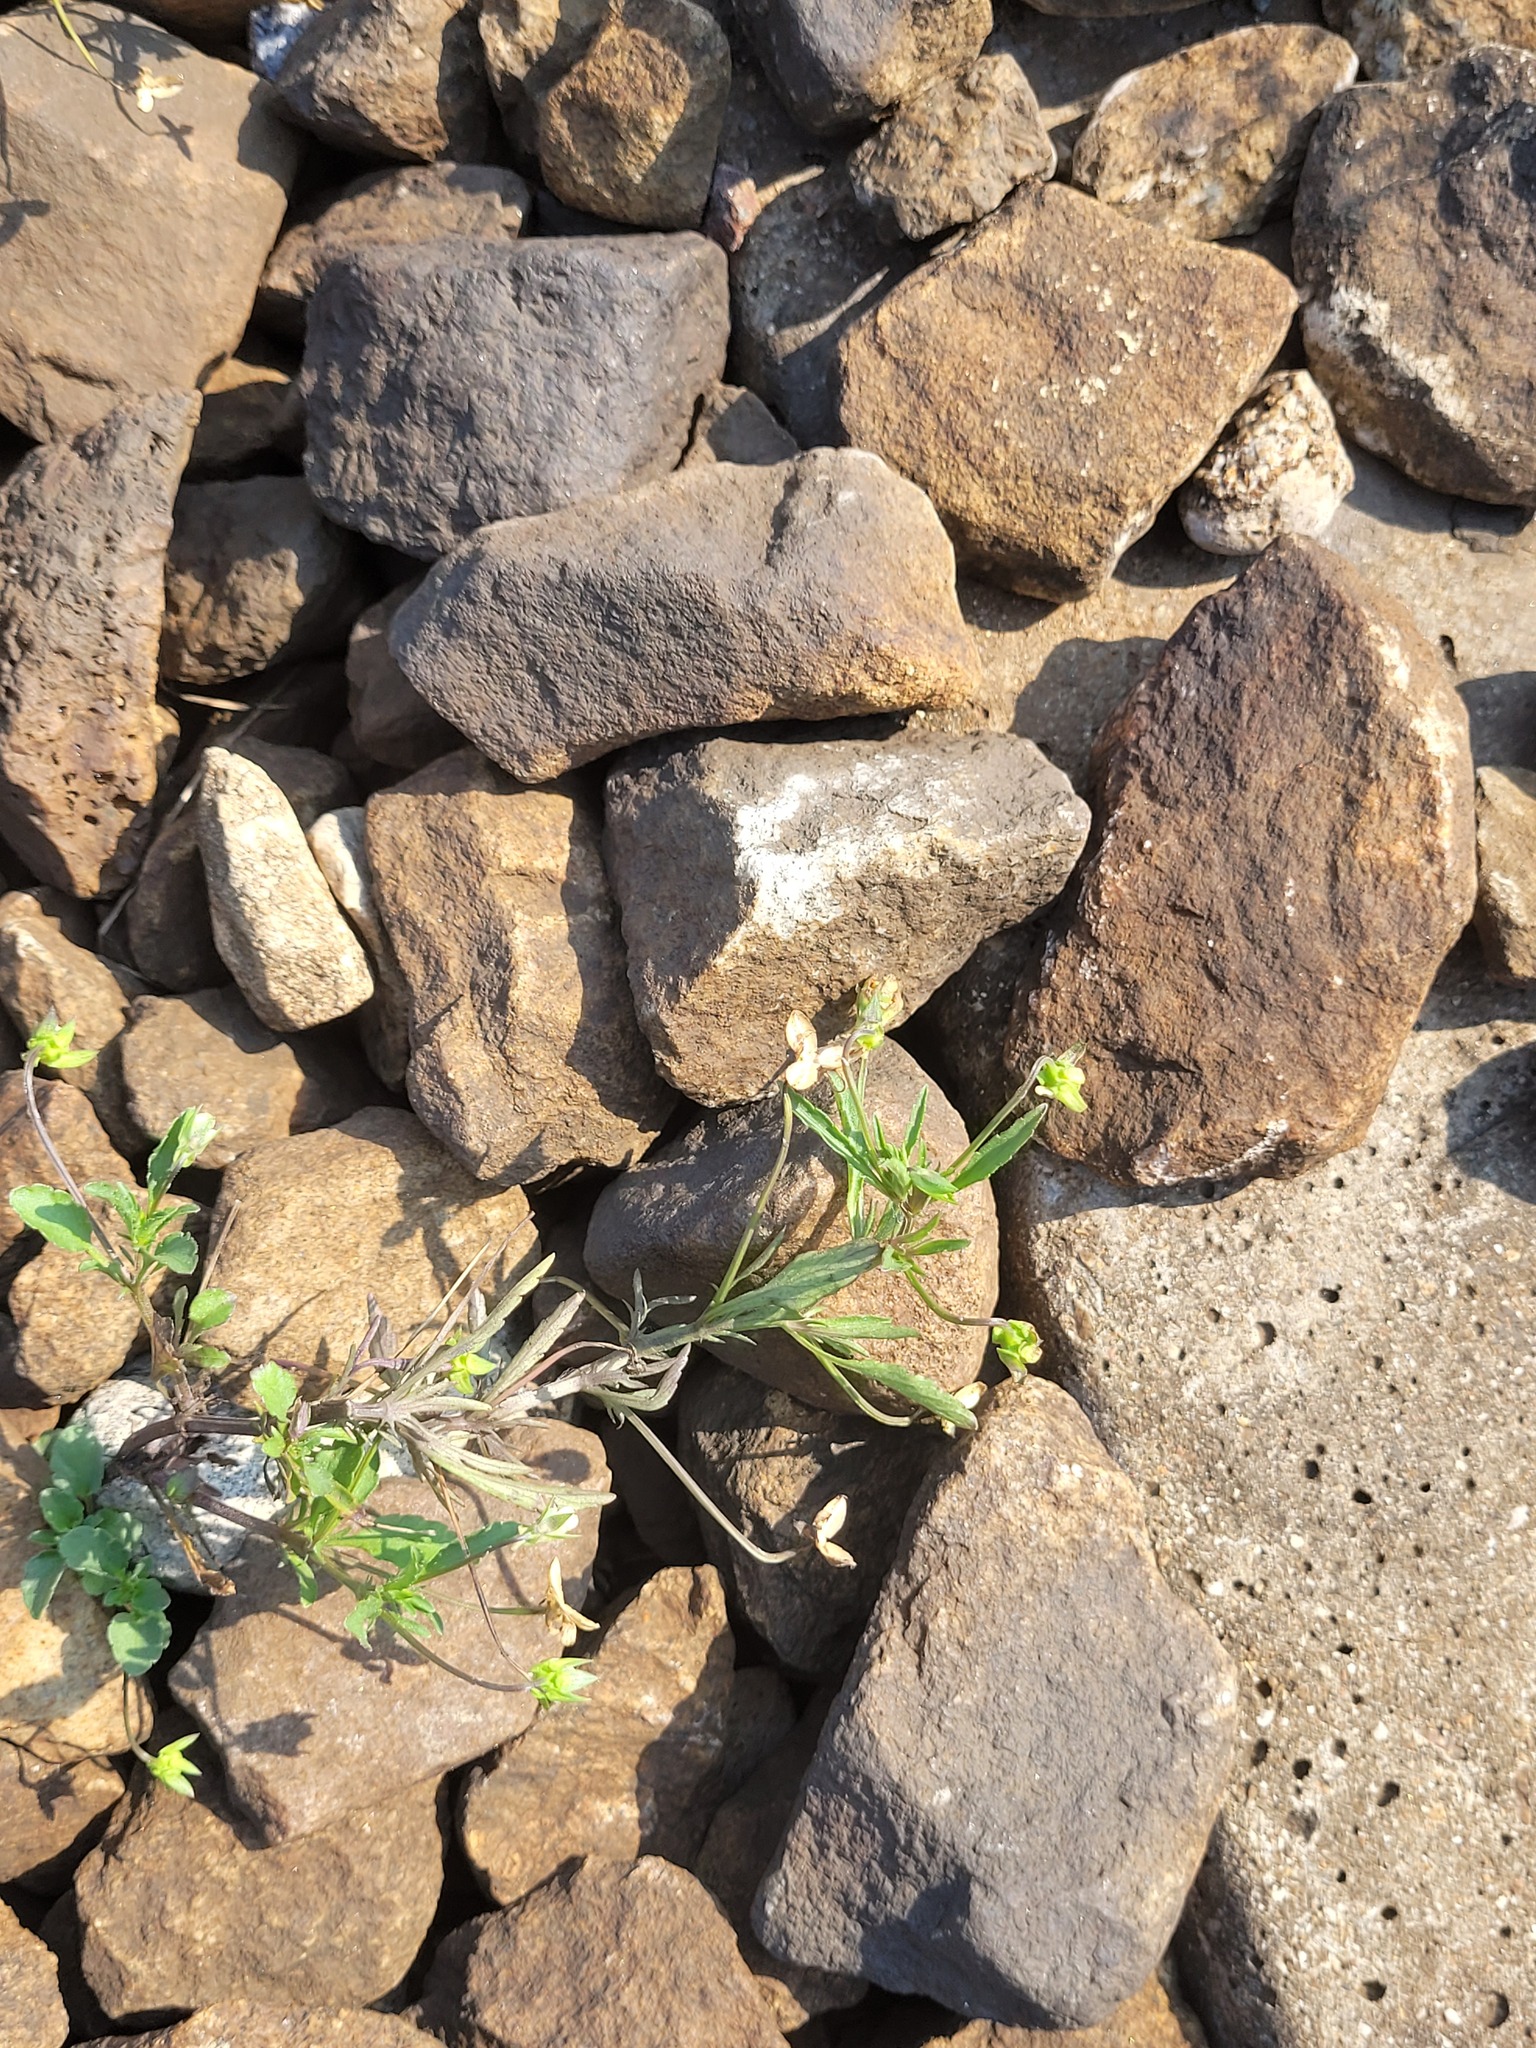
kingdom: Plantae
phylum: Tracheophyta
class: Magnoliopsida
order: Malpighiales
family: Violaceae
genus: Viola
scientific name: Viola arvensis
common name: Field pansy
